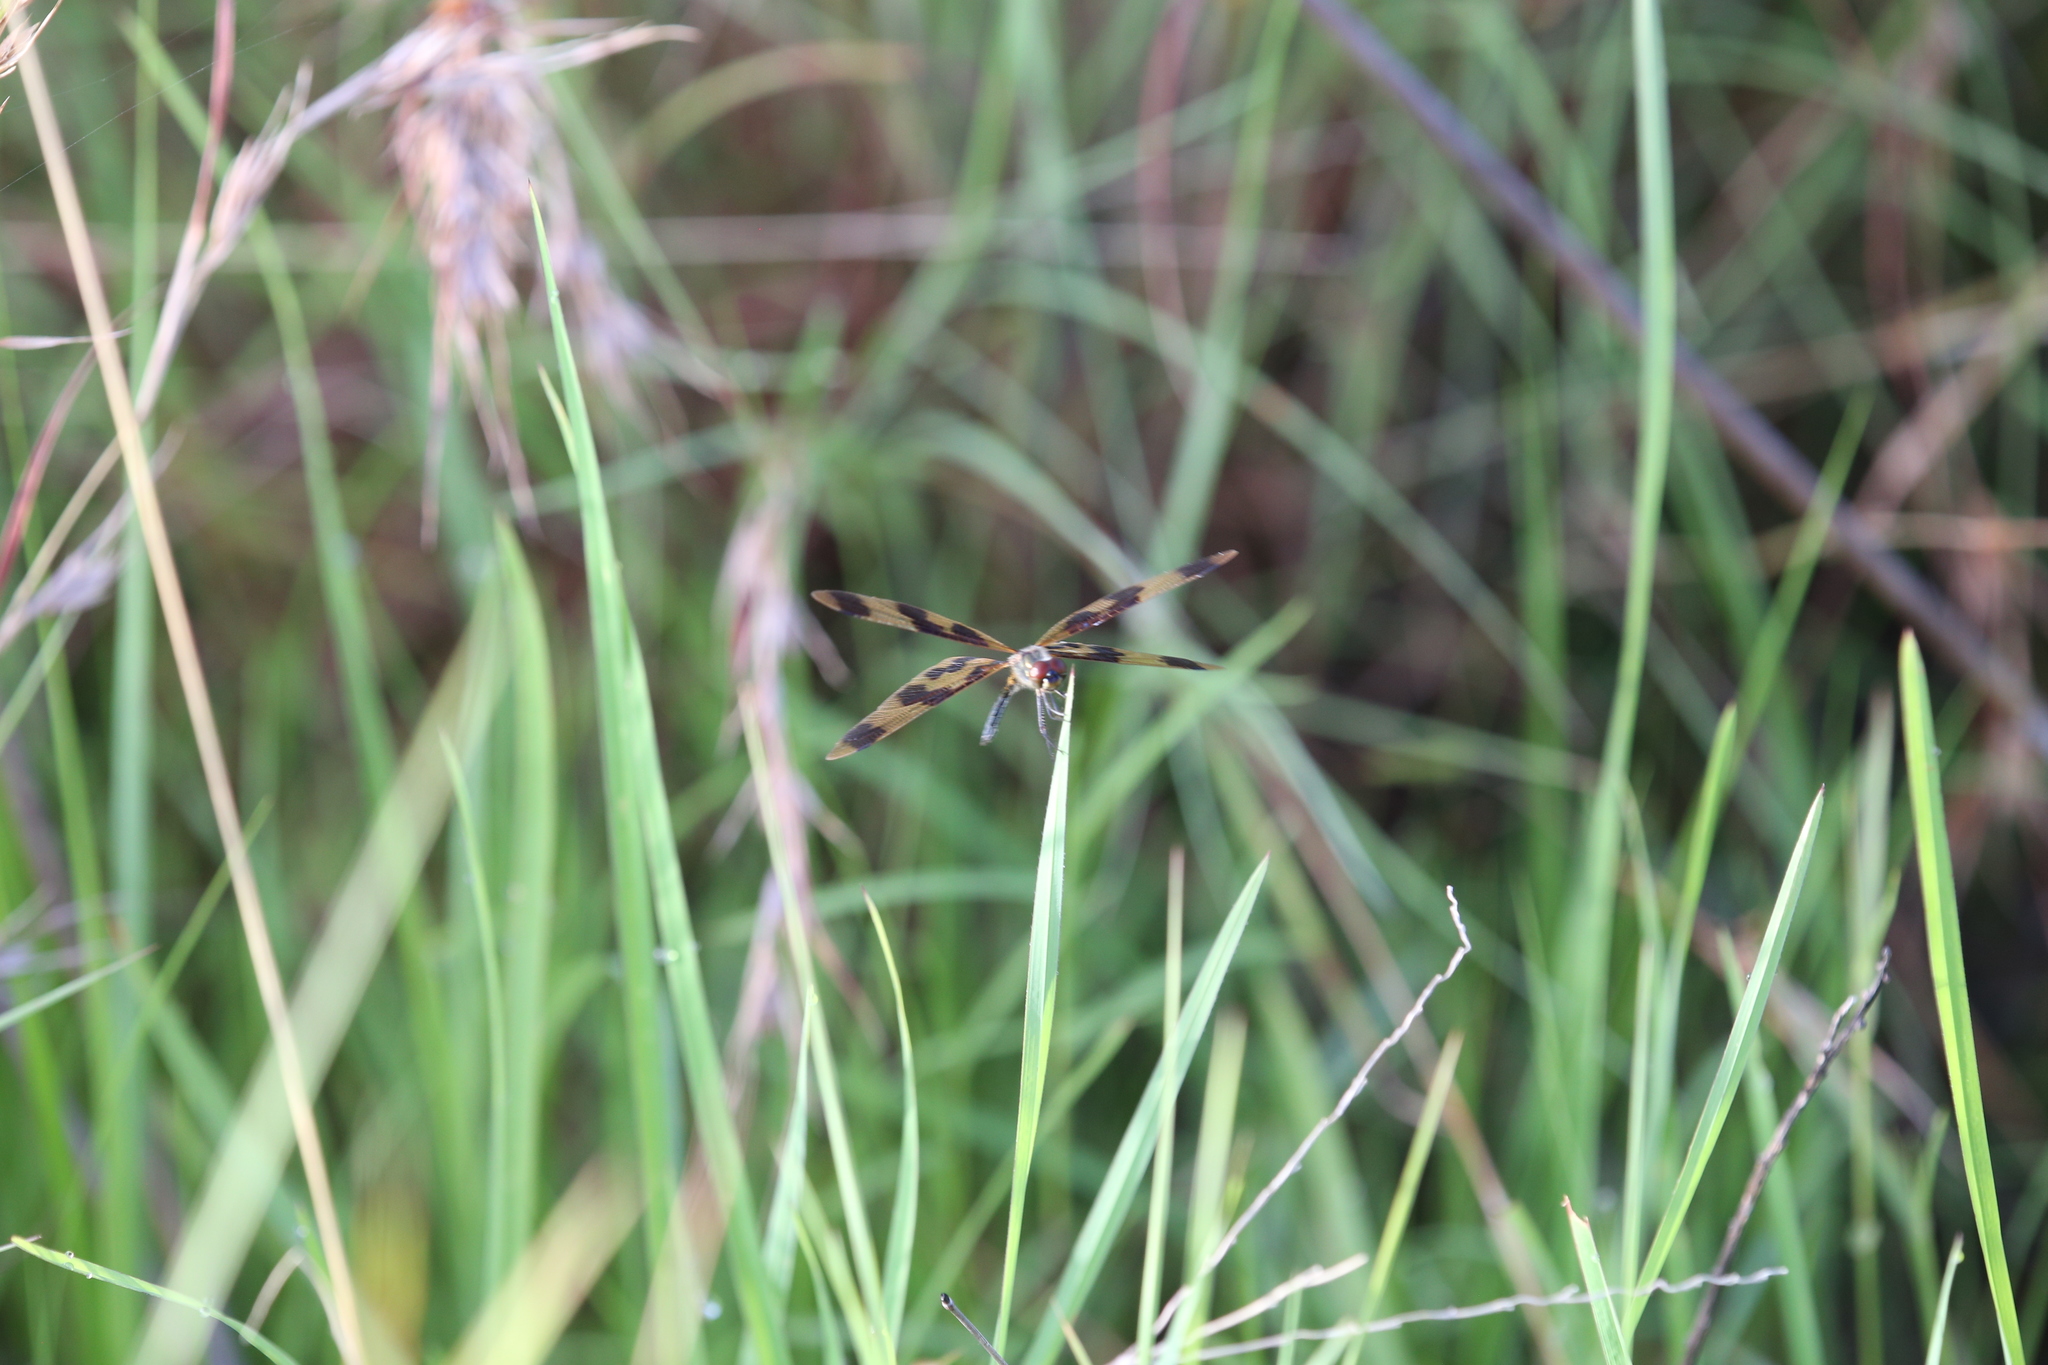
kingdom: Animalia
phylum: Arthropoda
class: Insecta
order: Odonata
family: Libellulidae
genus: Rhyothemis
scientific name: Rhyothemis graphiptera
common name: Graphic flutterer
